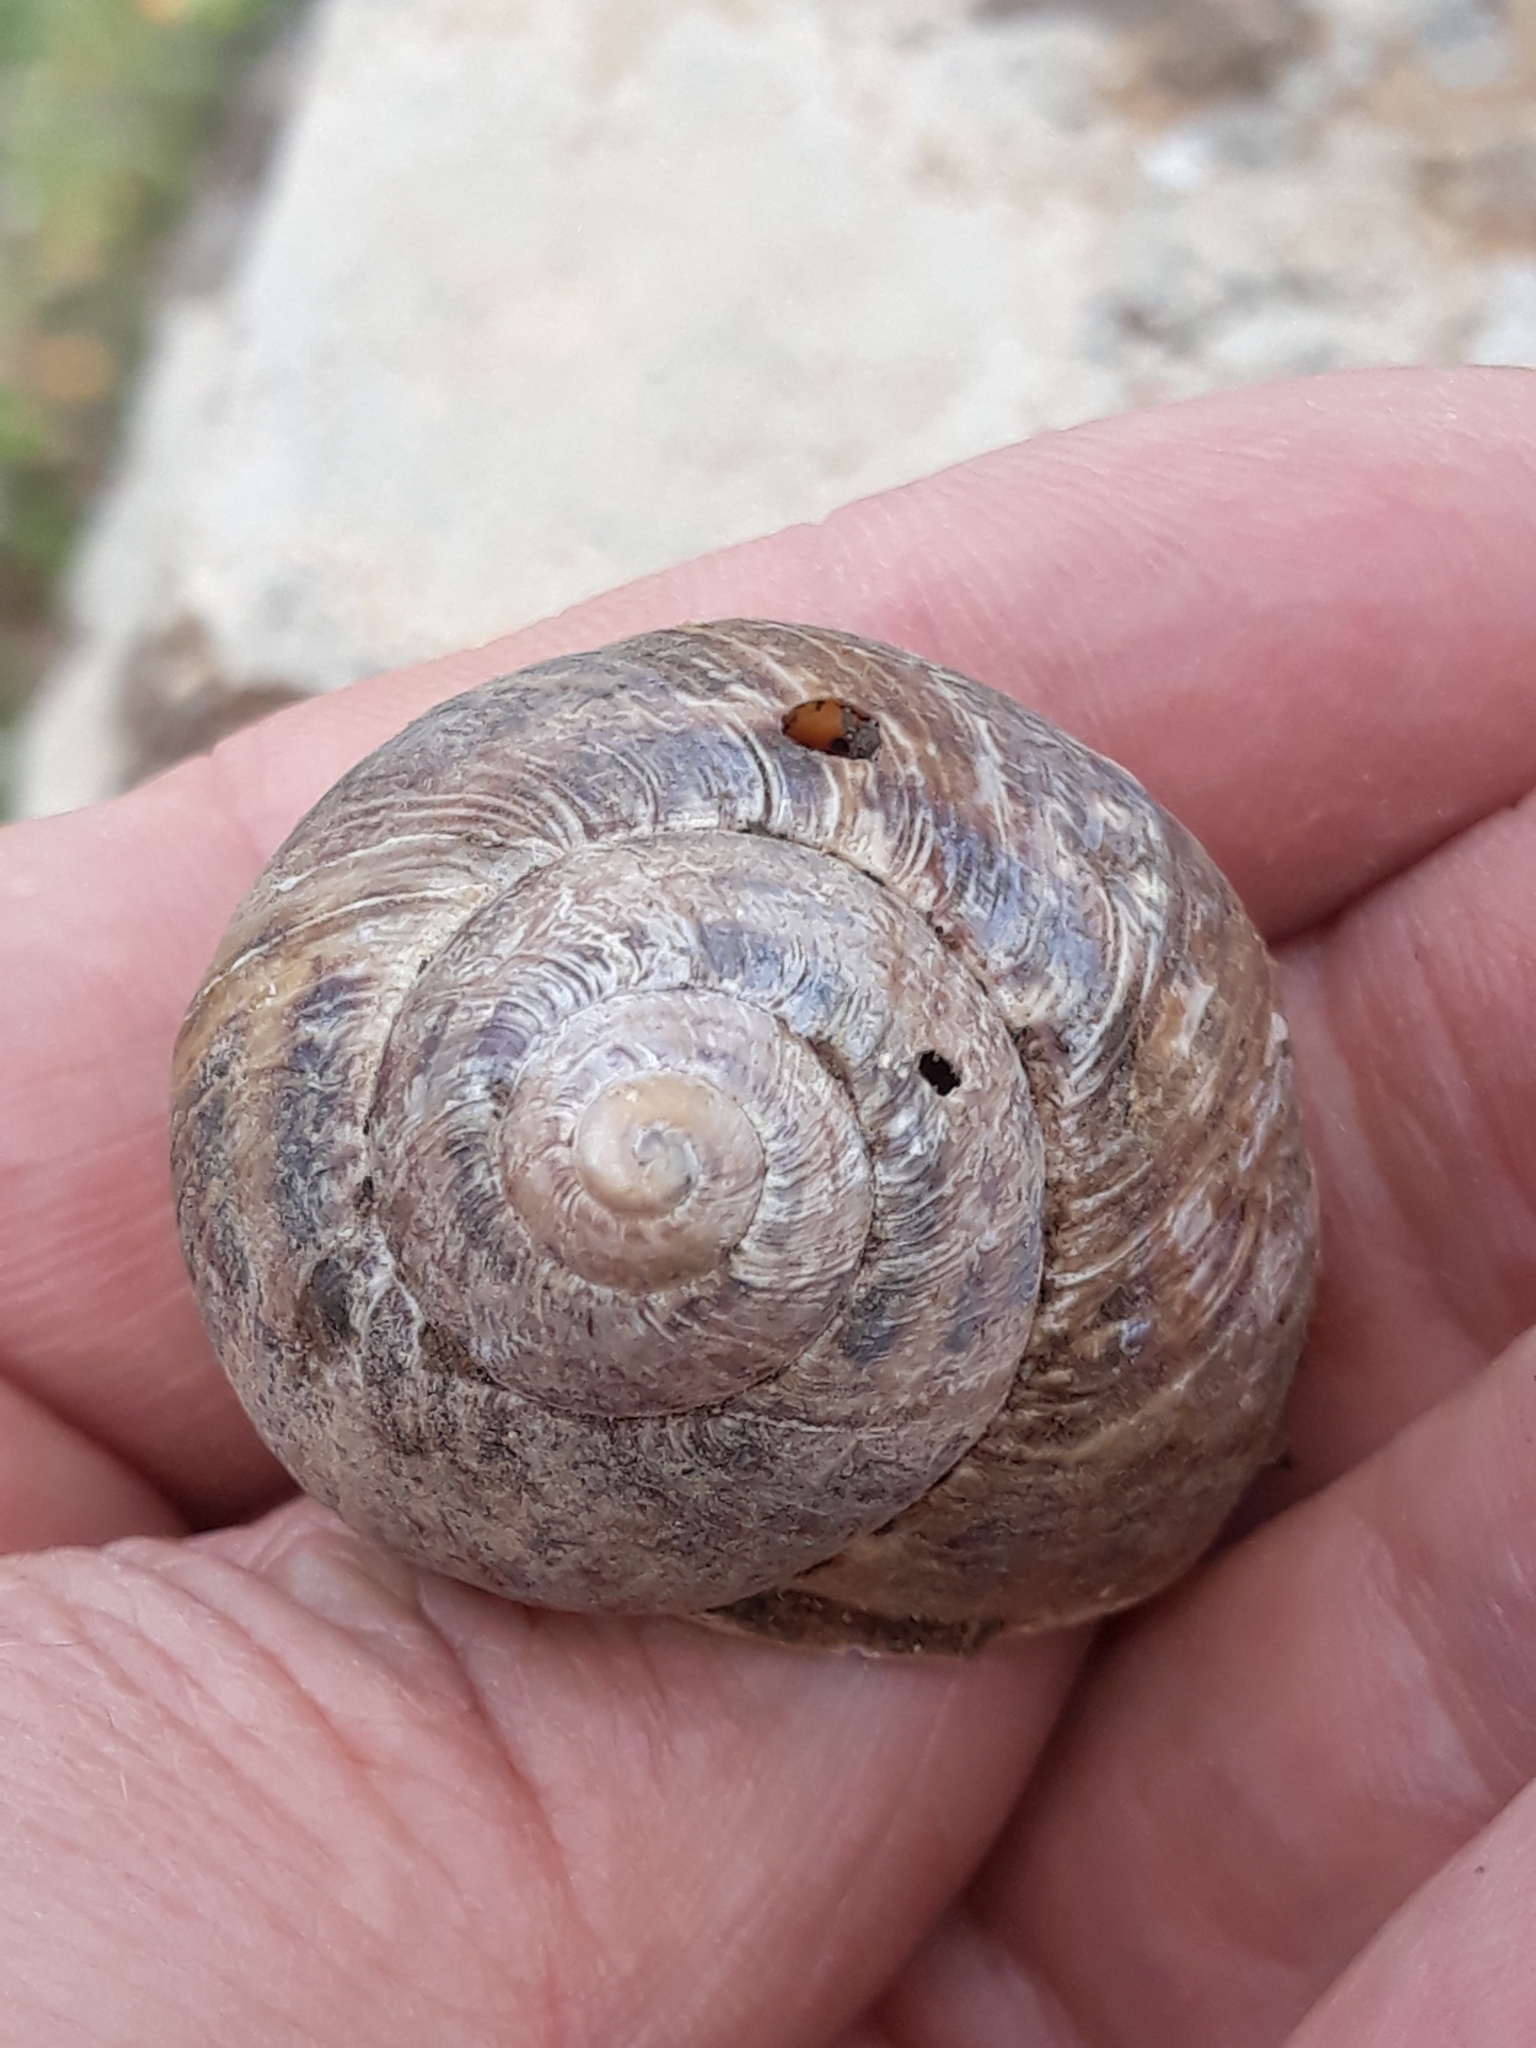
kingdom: Animalia
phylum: Mollusca
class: Gastropoda
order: Stylommatophora
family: Helicidae
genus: Cornu
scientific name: Cornu aspersum
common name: Brown garden snail
